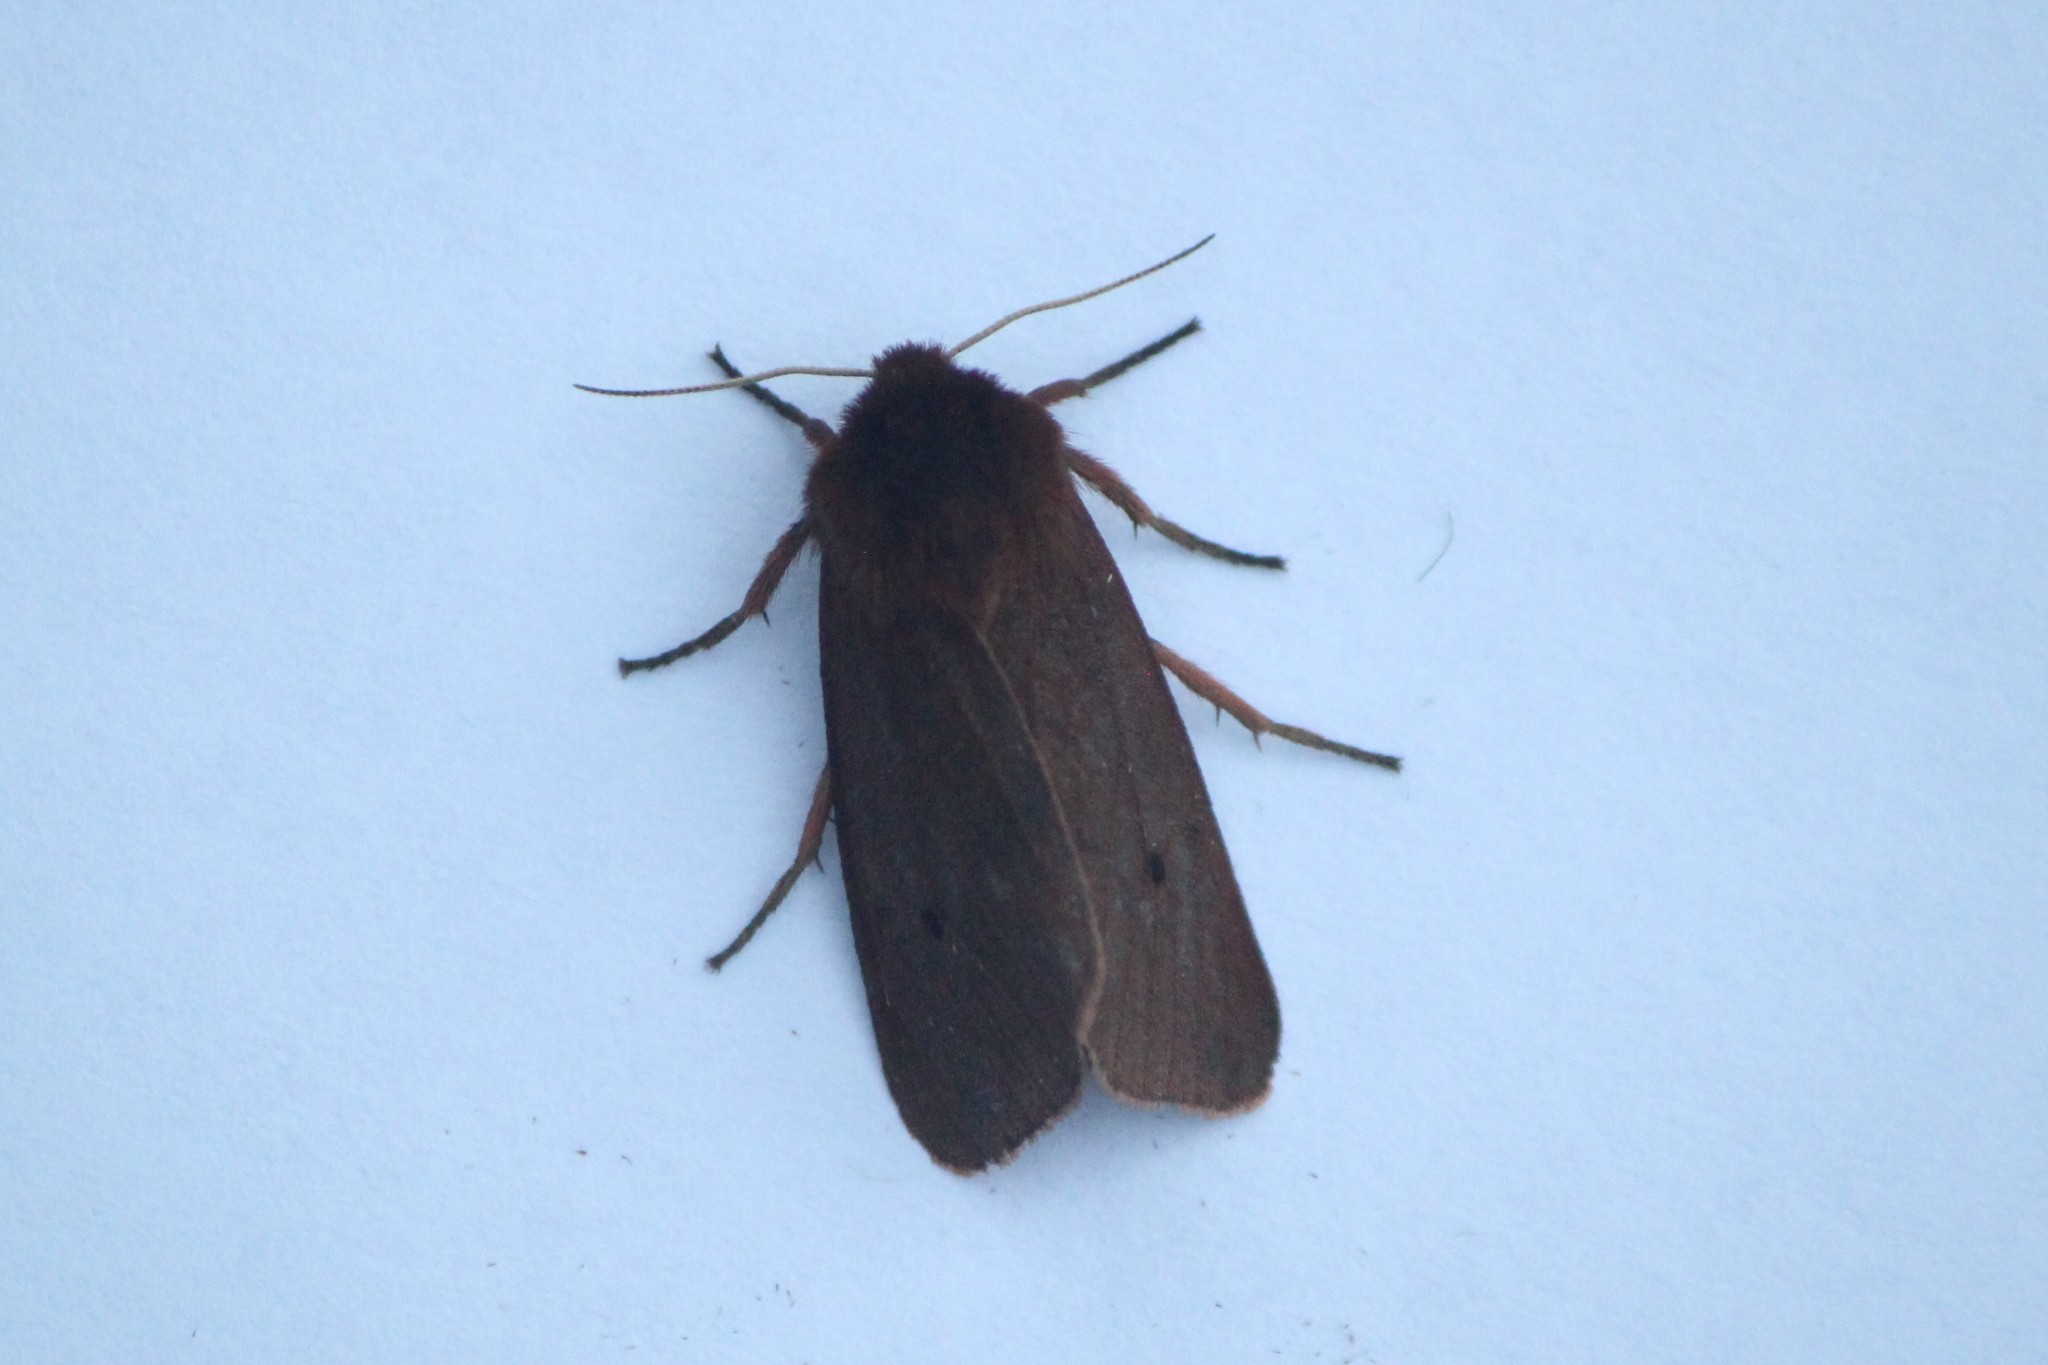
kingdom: Animalia
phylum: Arthropoda
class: Insecta
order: Lepidoptera
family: Erebidae
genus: Phragmatobia
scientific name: Phragmatobia fuliginosa
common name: Ruby tiger
